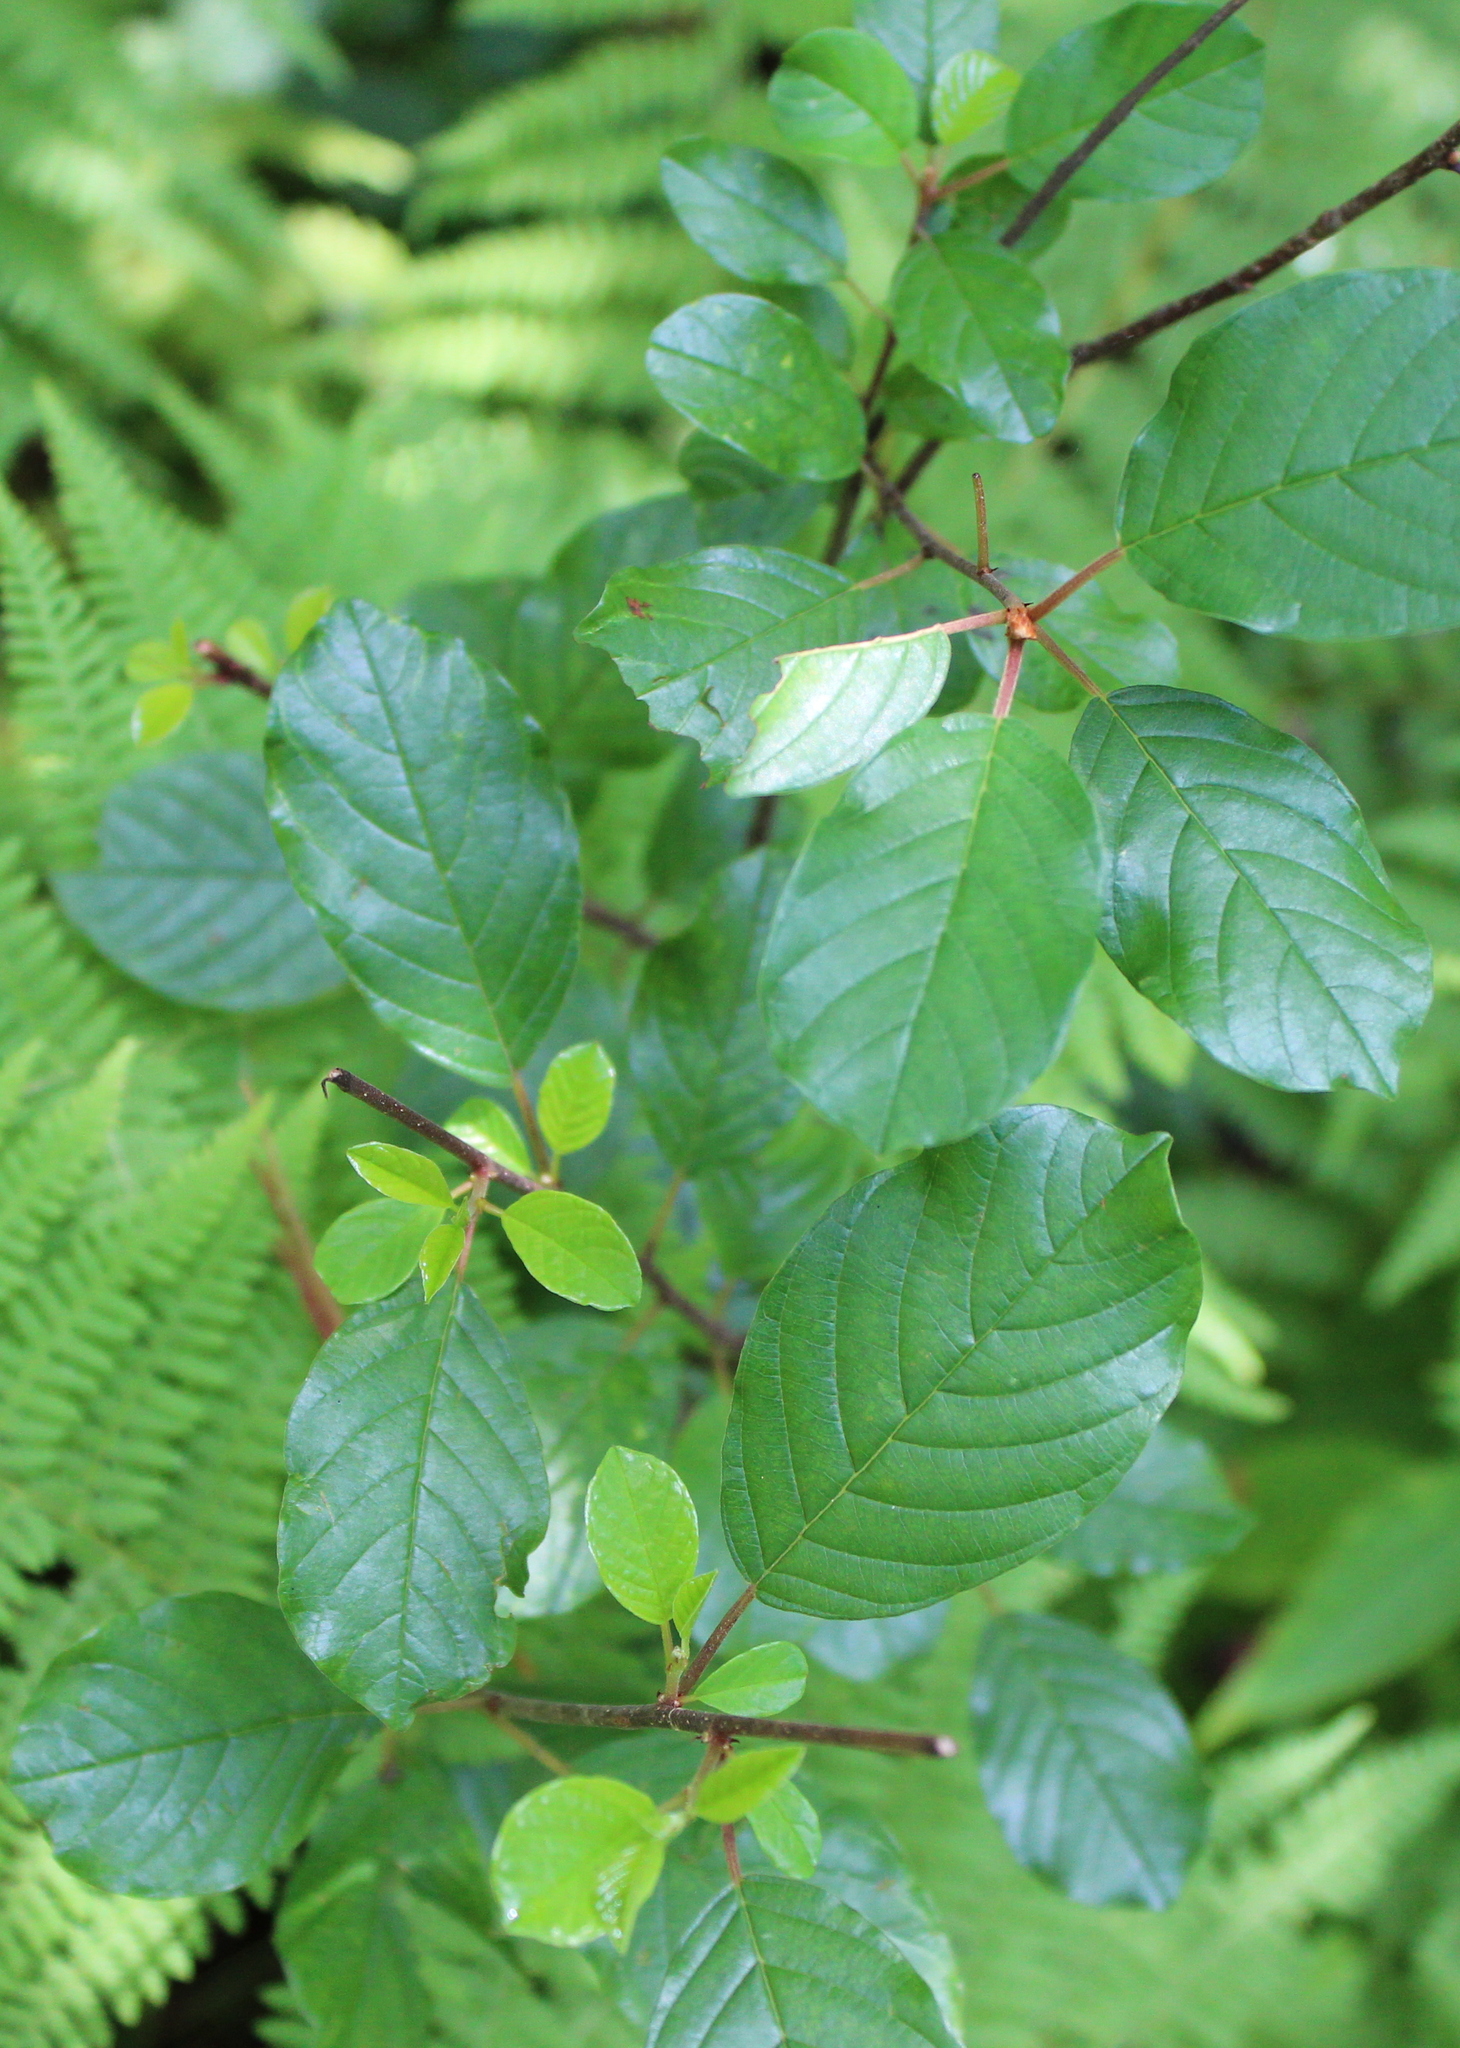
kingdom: Plantae
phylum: Tracheophyta
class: Magnoliopsida
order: Rosales
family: Rhamnaceae
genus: Frangula
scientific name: Frangula alnus
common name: Alder buckthorn
